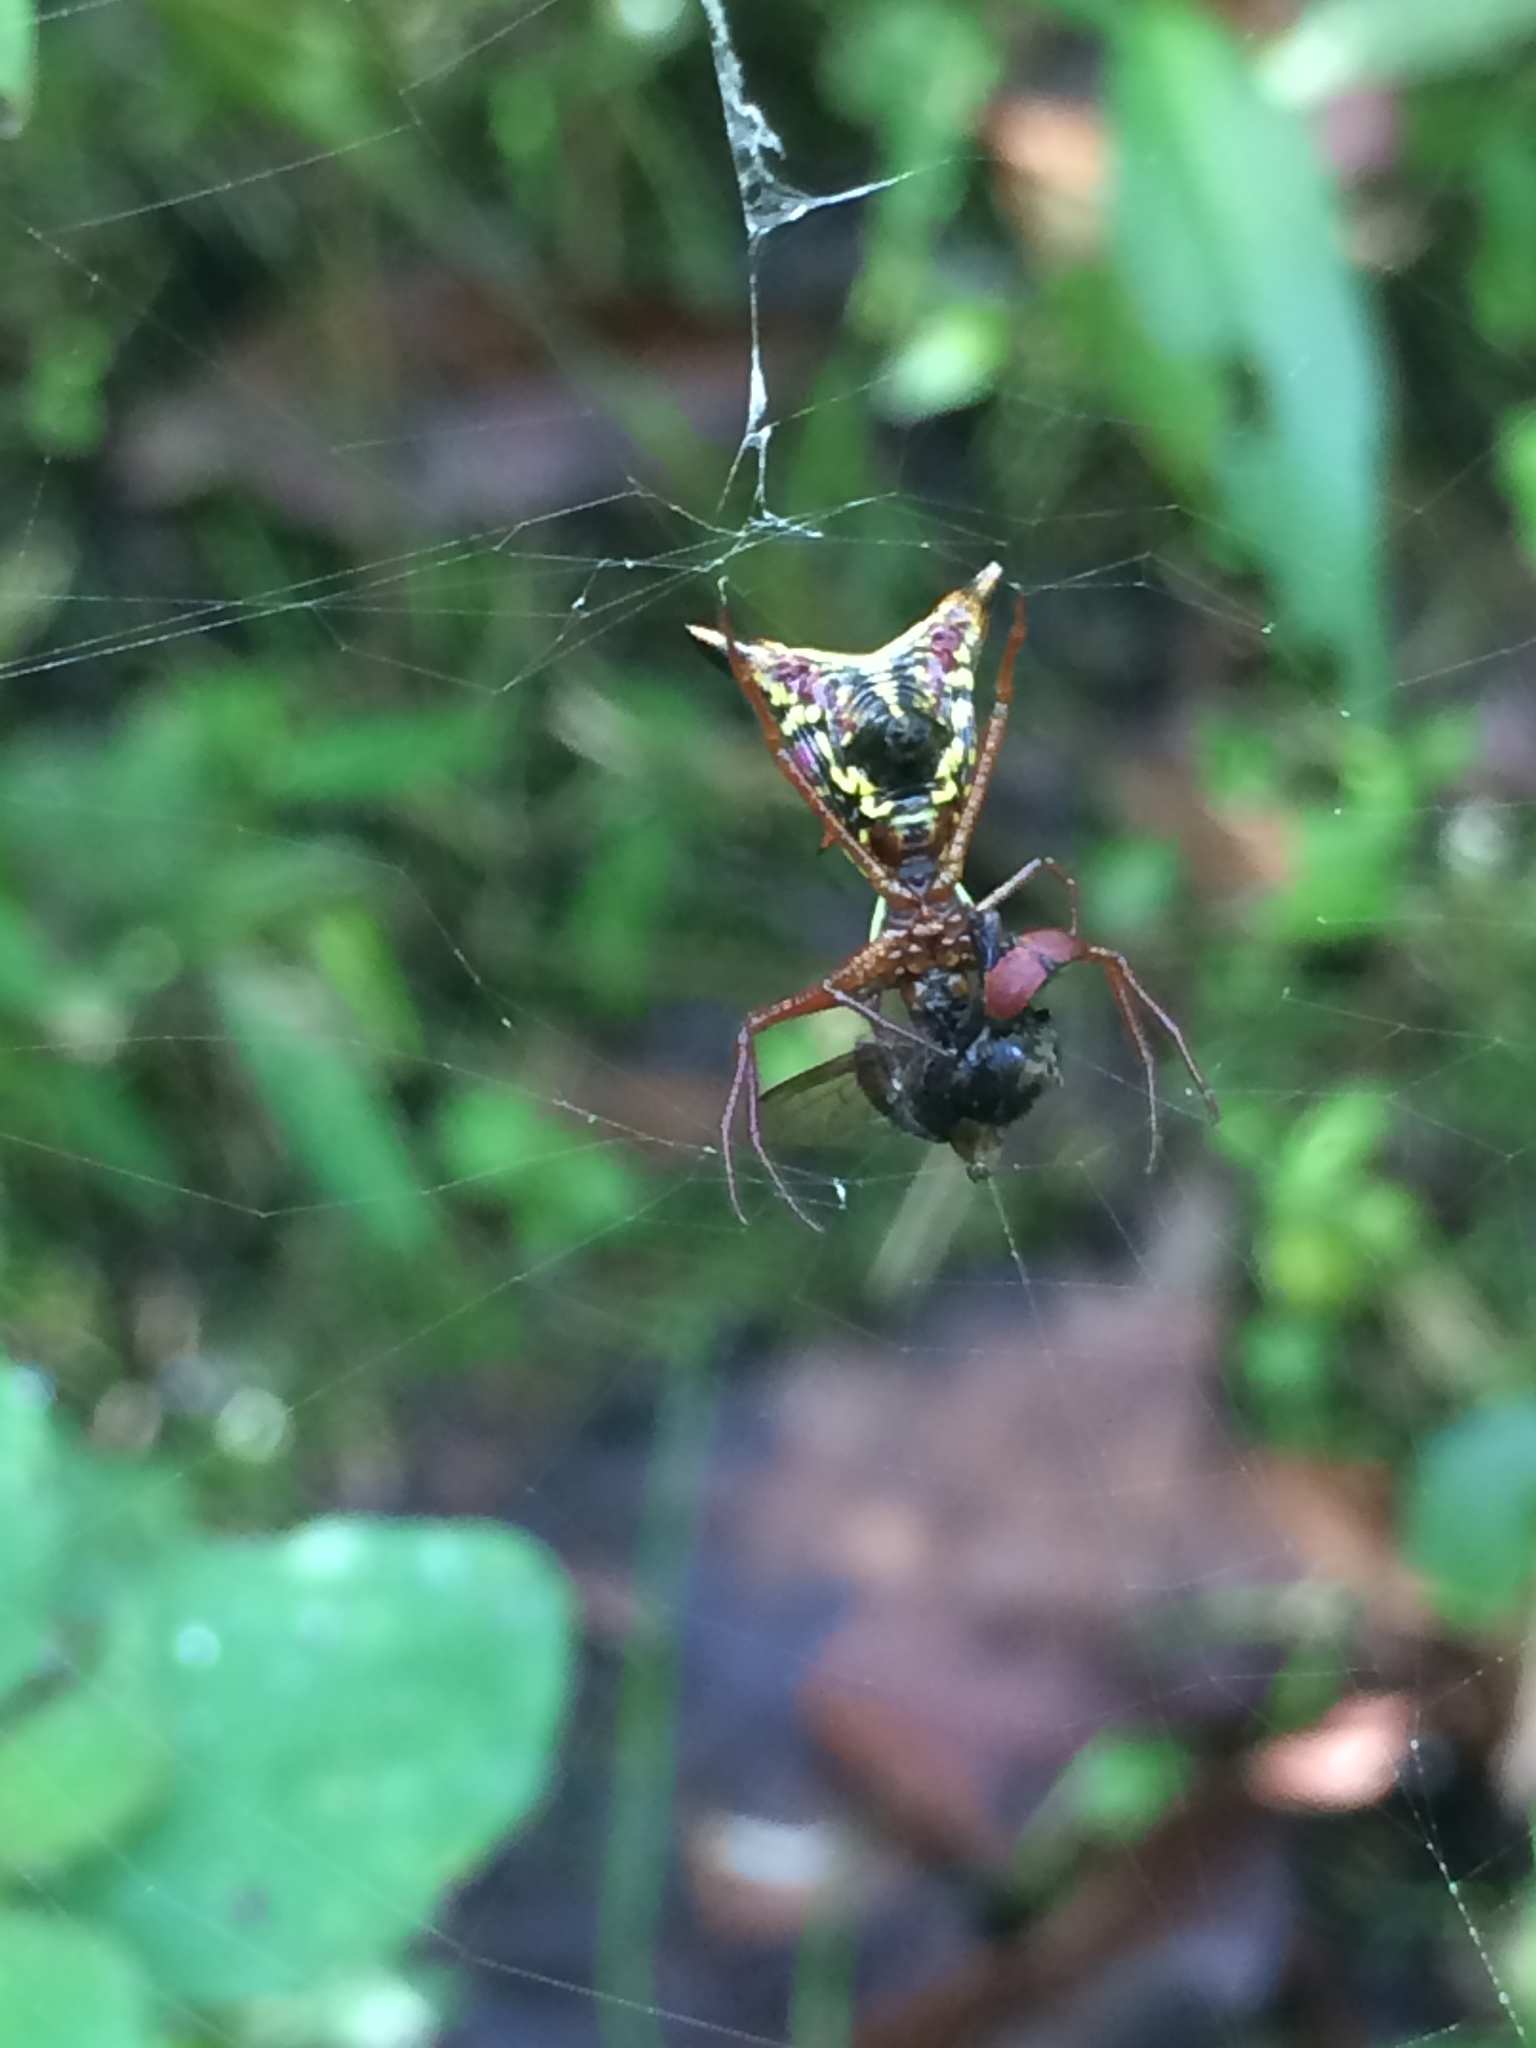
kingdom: Animalia
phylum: Arthropoda
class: Arachnida
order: Araneae
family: Araneidae
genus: Micrathena
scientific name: Micrathena sagittata
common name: Orb weavers
